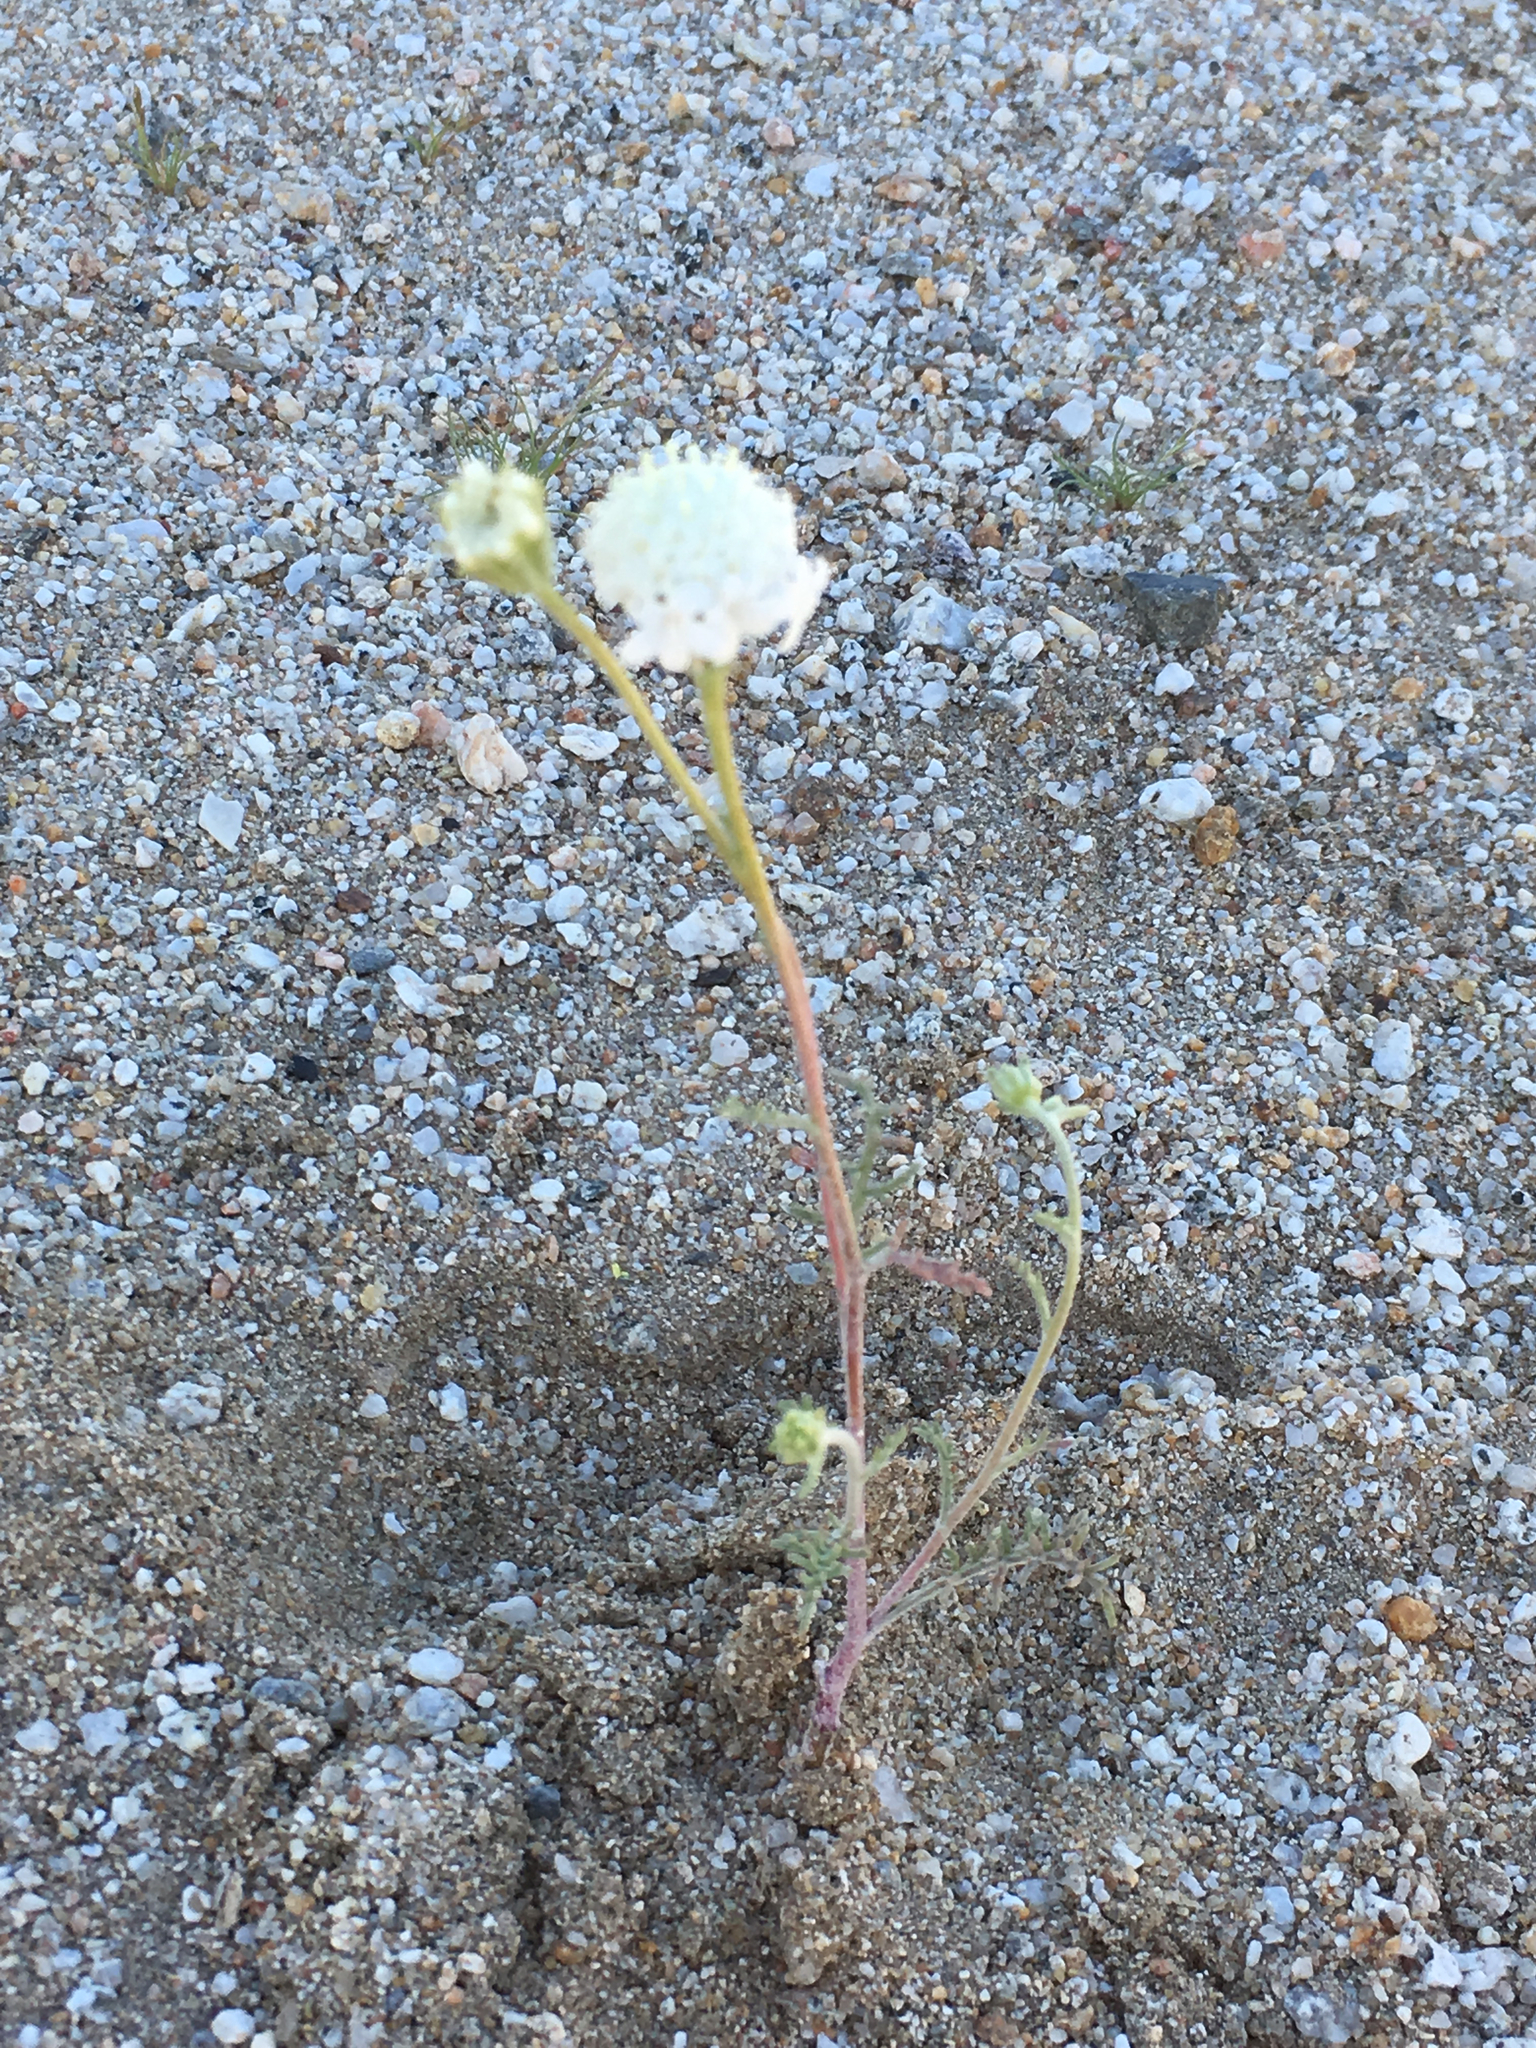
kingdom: Plantae
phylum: Tracheophyta
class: Magnoliopsida
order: Asterales
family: Asteraceae
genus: Chaenactis
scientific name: Chaenactis stevioides
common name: Desert pincushion
